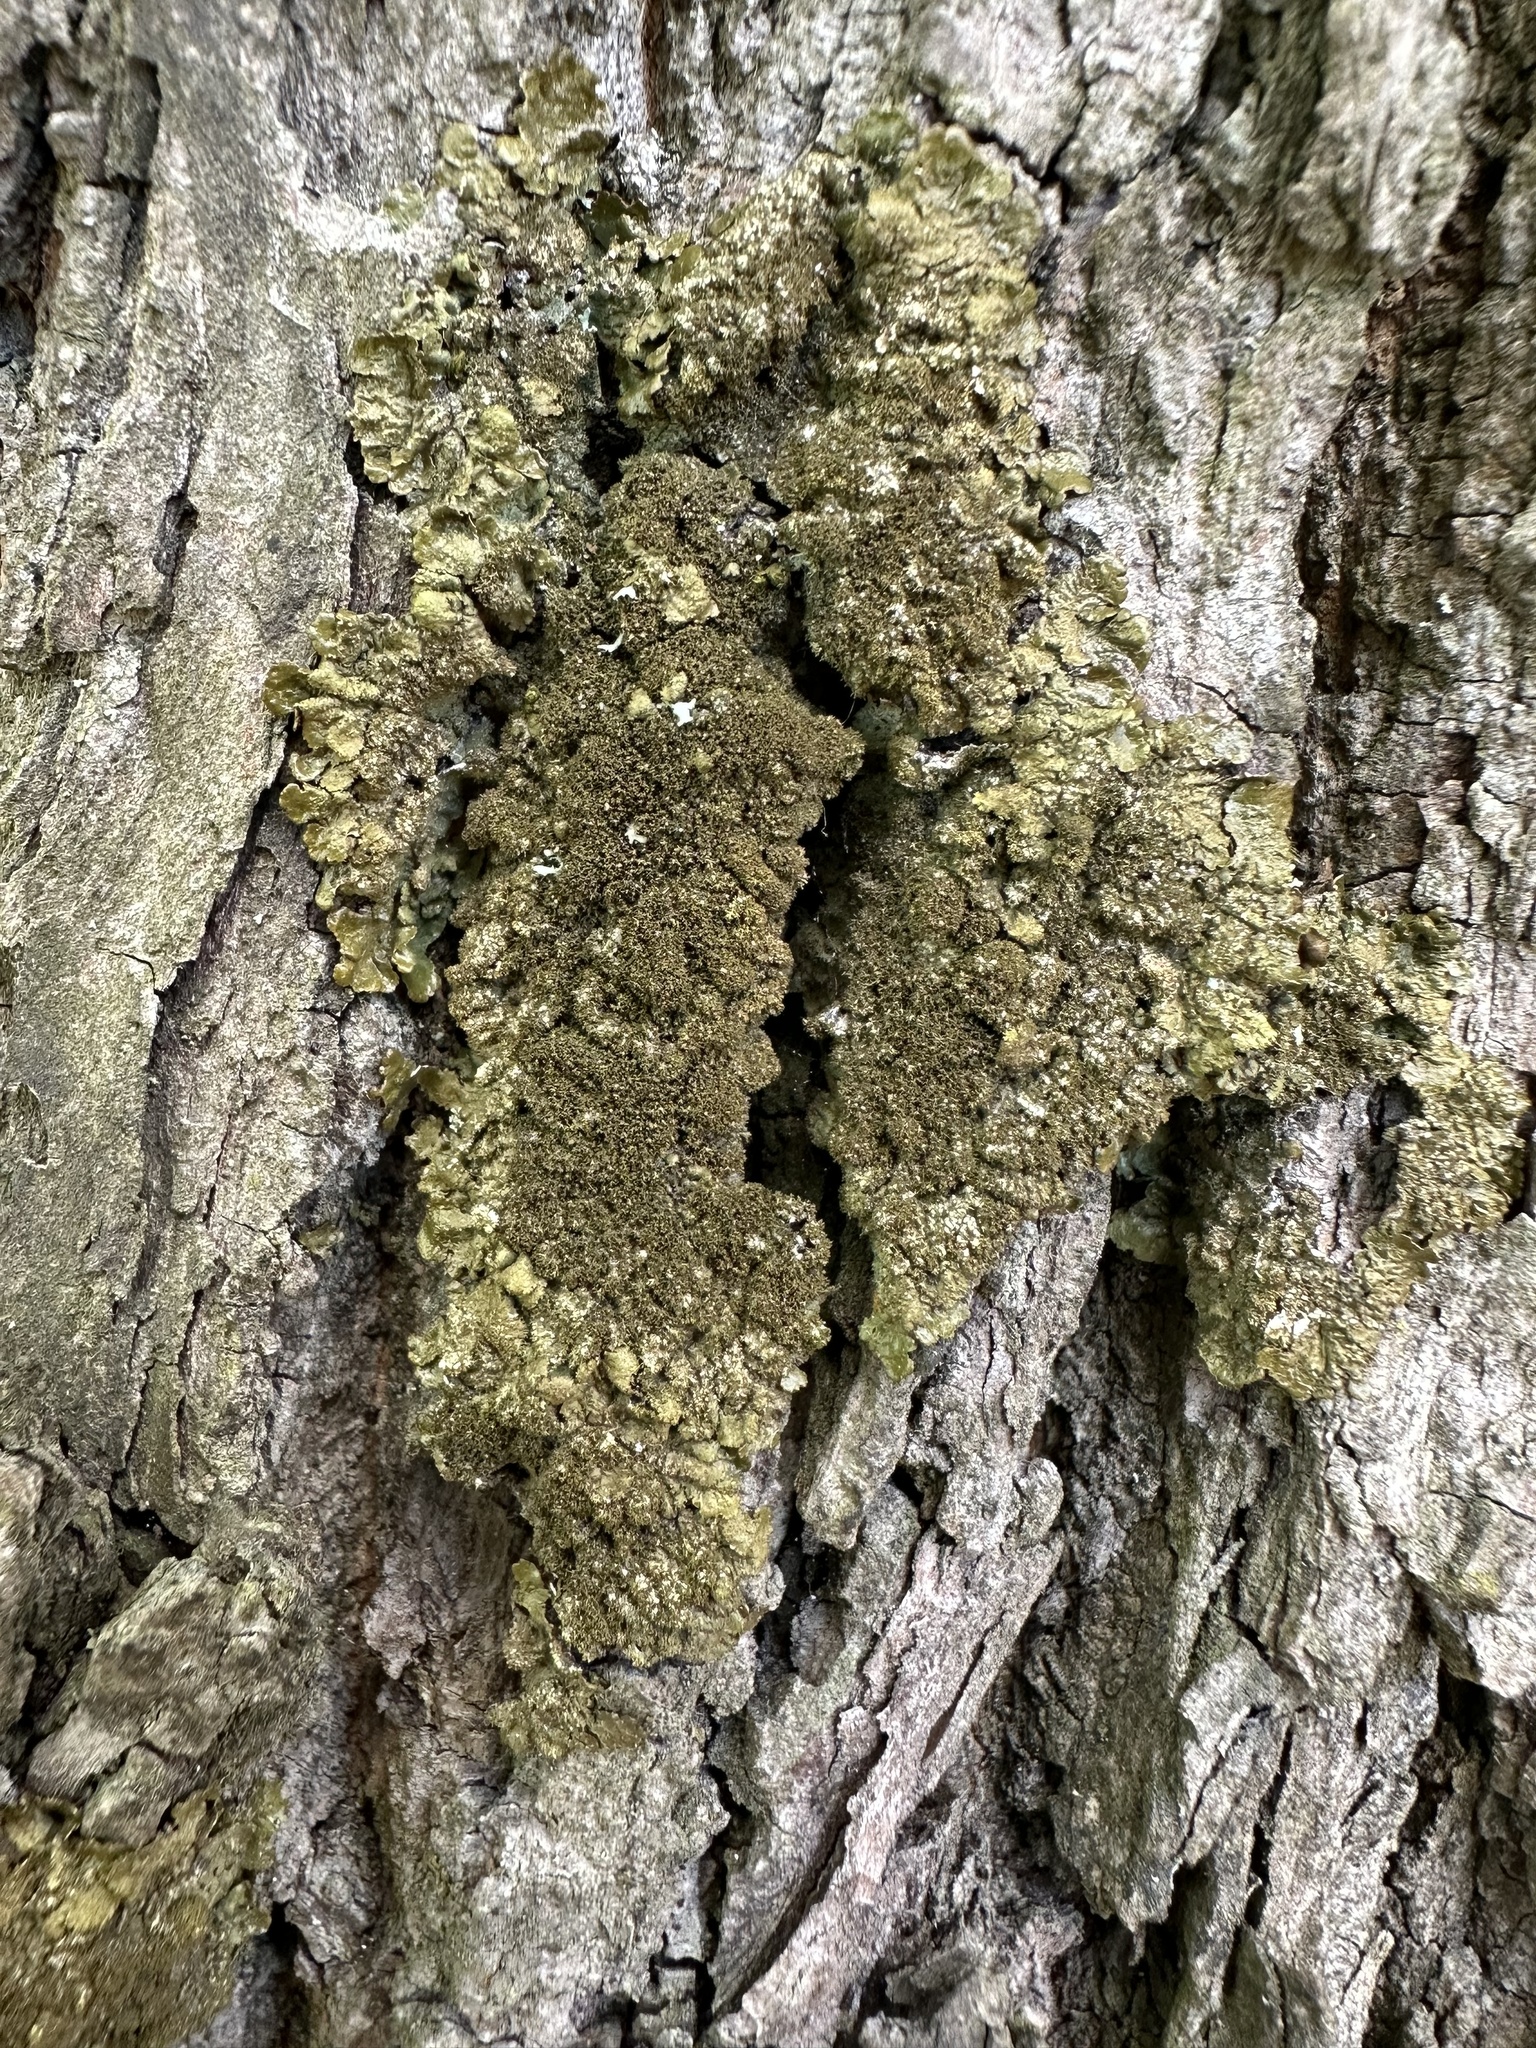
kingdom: Fungi
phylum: Ascomycota
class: Lecanoromycetes
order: Lecanorales
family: Parmeliaceae
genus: Melanelixia
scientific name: Melanelixia glabratula
